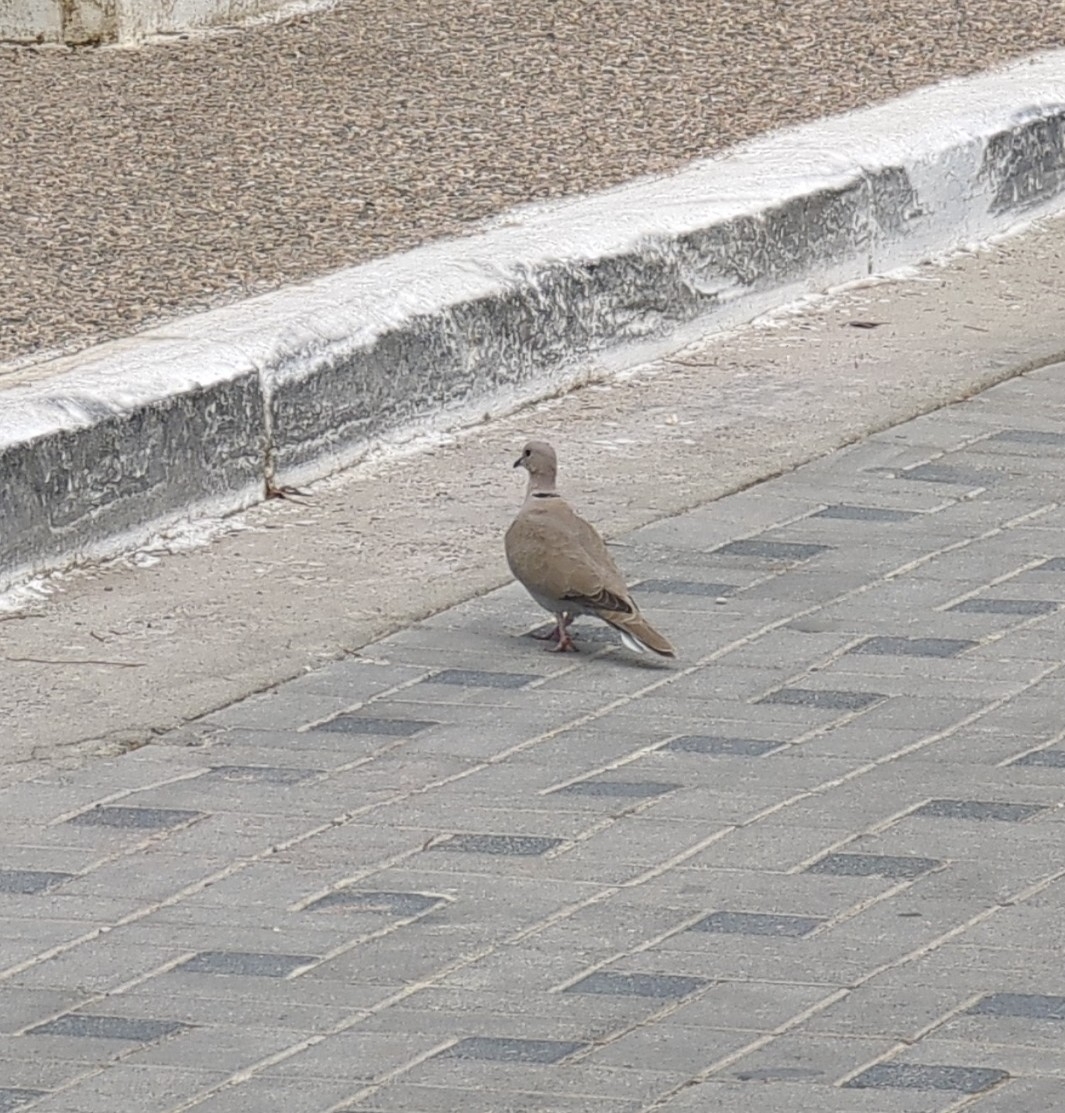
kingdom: Animalia
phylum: Chordata
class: Aves
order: Columbiformes
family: Columbidae
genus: Streptopelia
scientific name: Streptopelia decaocto
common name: Eurasian collared dove
